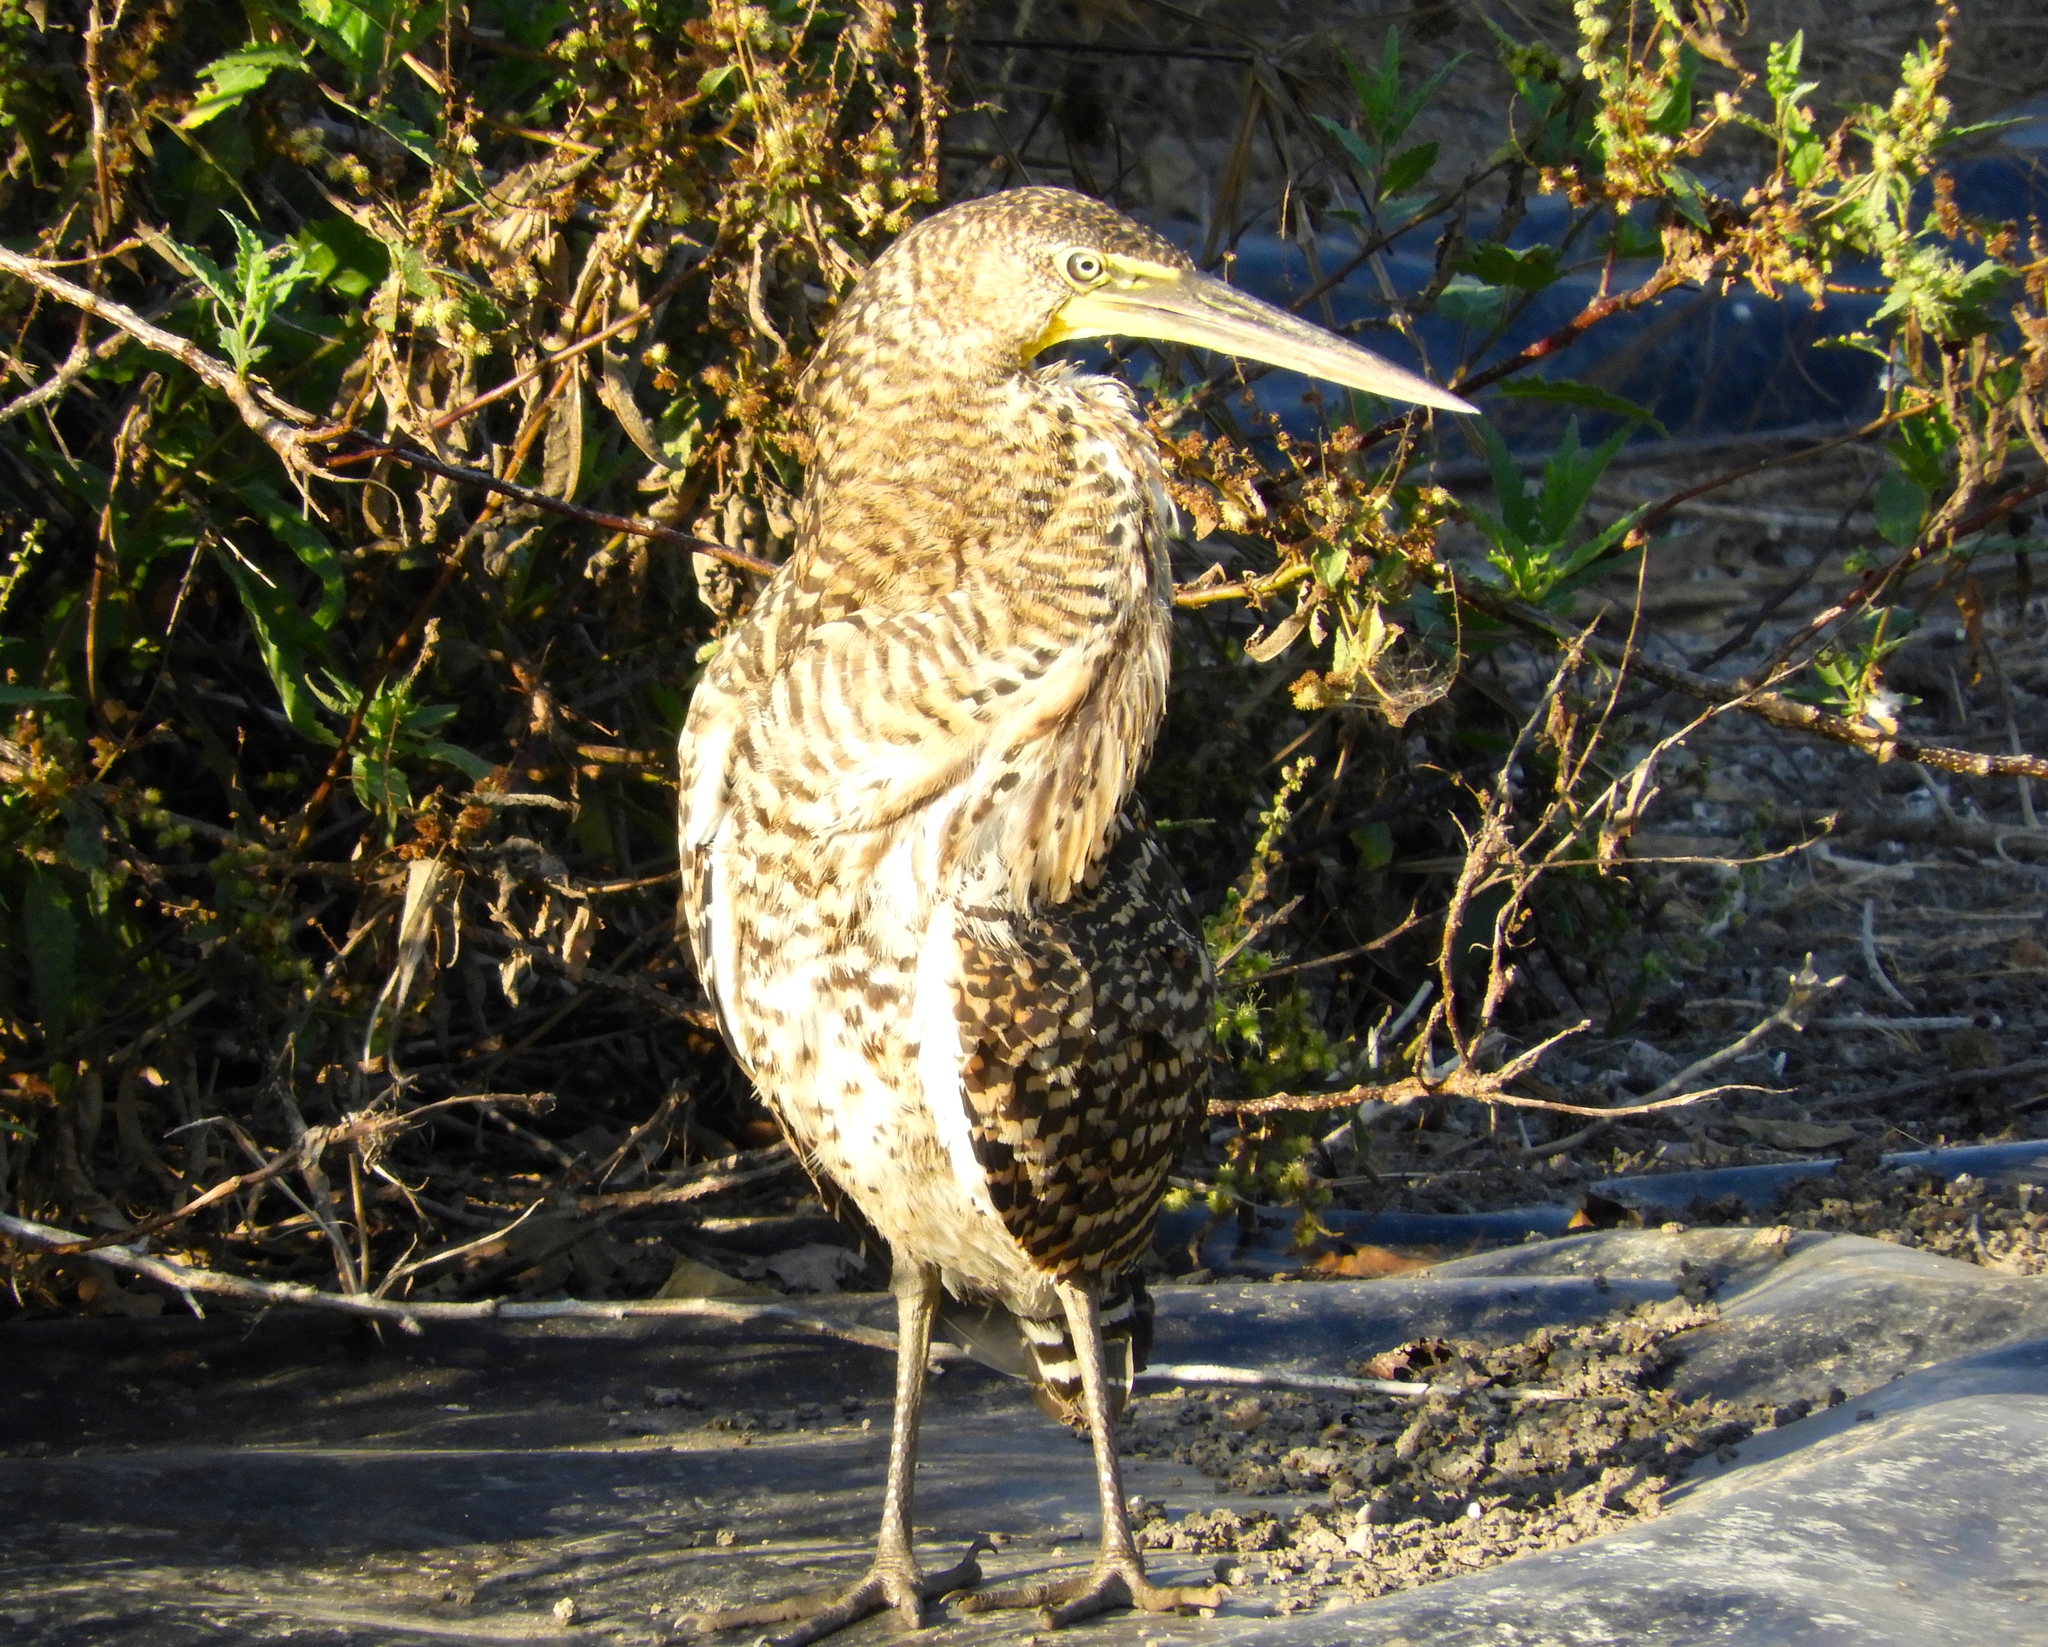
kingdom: Animalia
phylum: Chordata
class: Aves
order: Pelecaniformes
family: Ardeidae
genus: Tigrisoma
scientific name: Tigrisoma mexicanum
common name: Bare-throated tiger-heron
